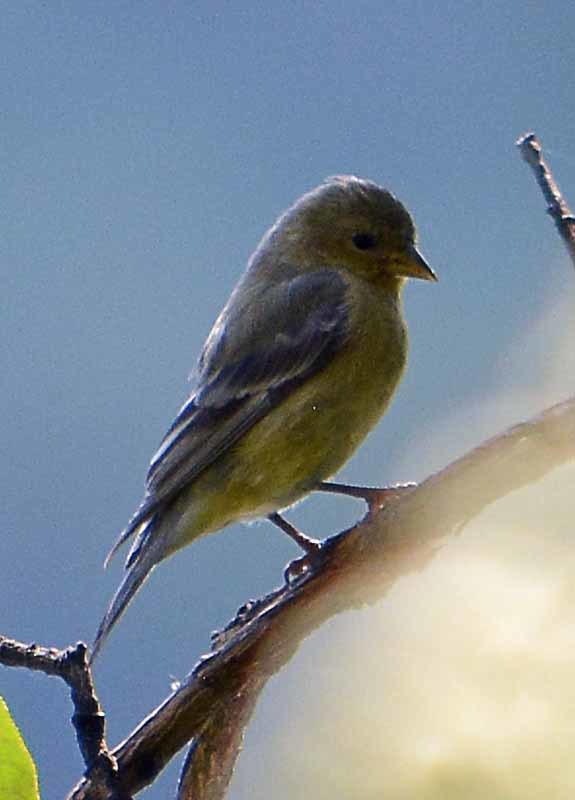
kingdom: Animalia
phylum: Chordata
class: Aves
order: Passeriformes
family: Fringillidae
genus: Spinus
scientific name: Spinus psaltria
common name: Lesser goldfinch
